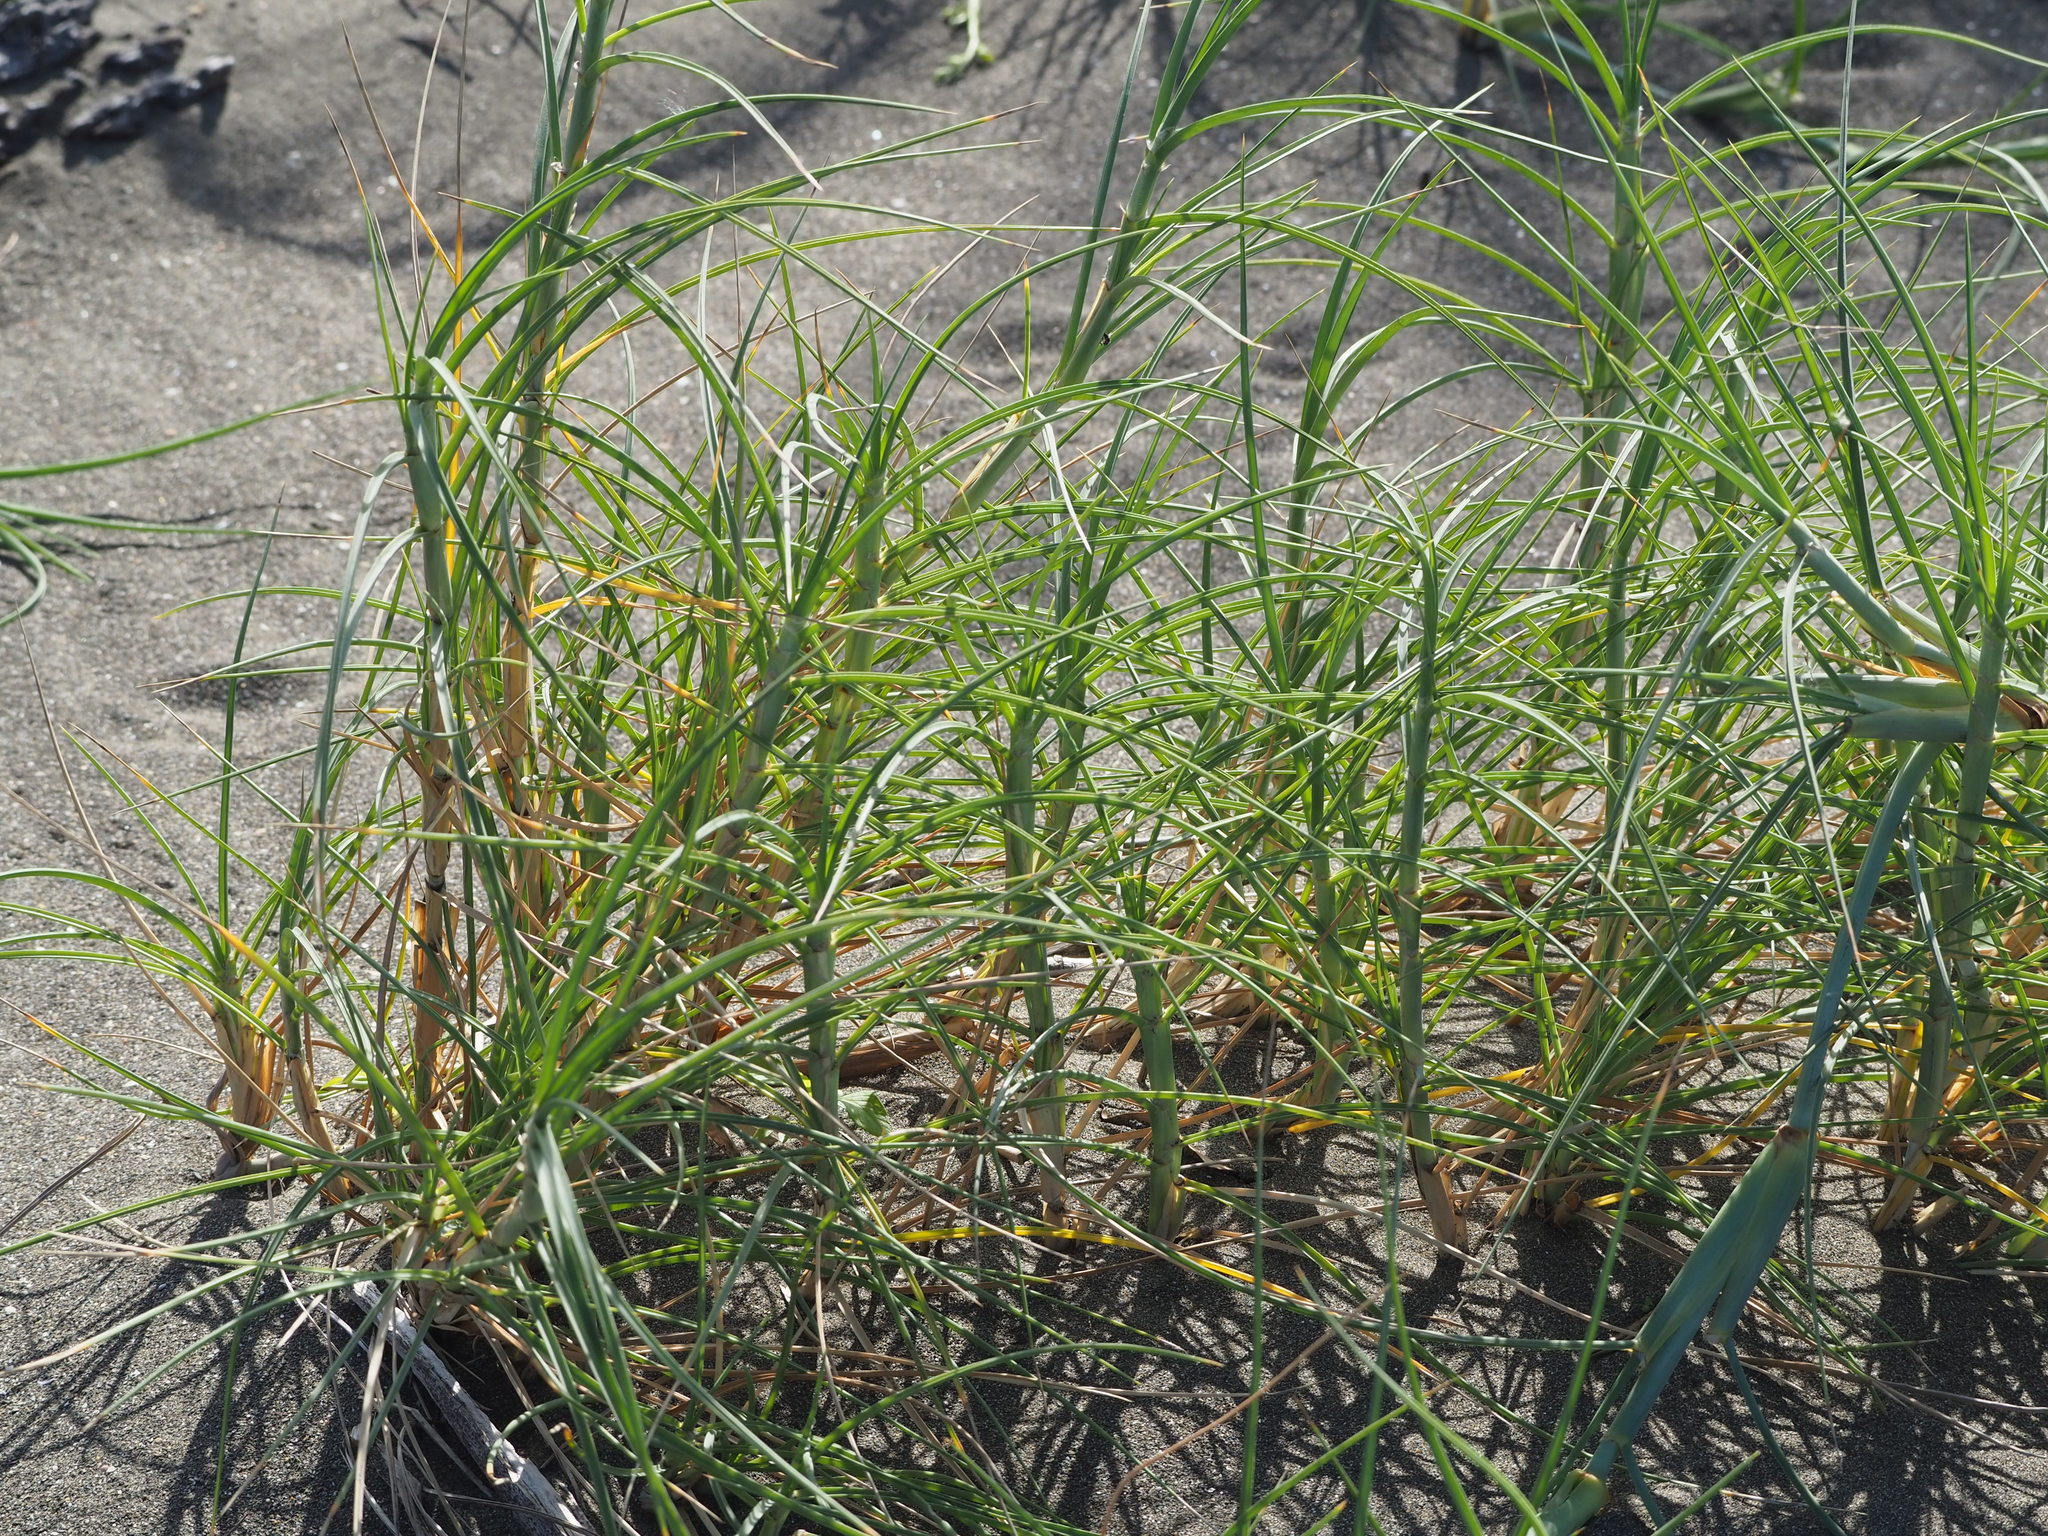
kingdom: Plantae
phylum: Tracheophyta
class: Liliopsida
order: Poales
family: Poaceae
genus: Spinifex
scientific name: Spinifex littoreus
